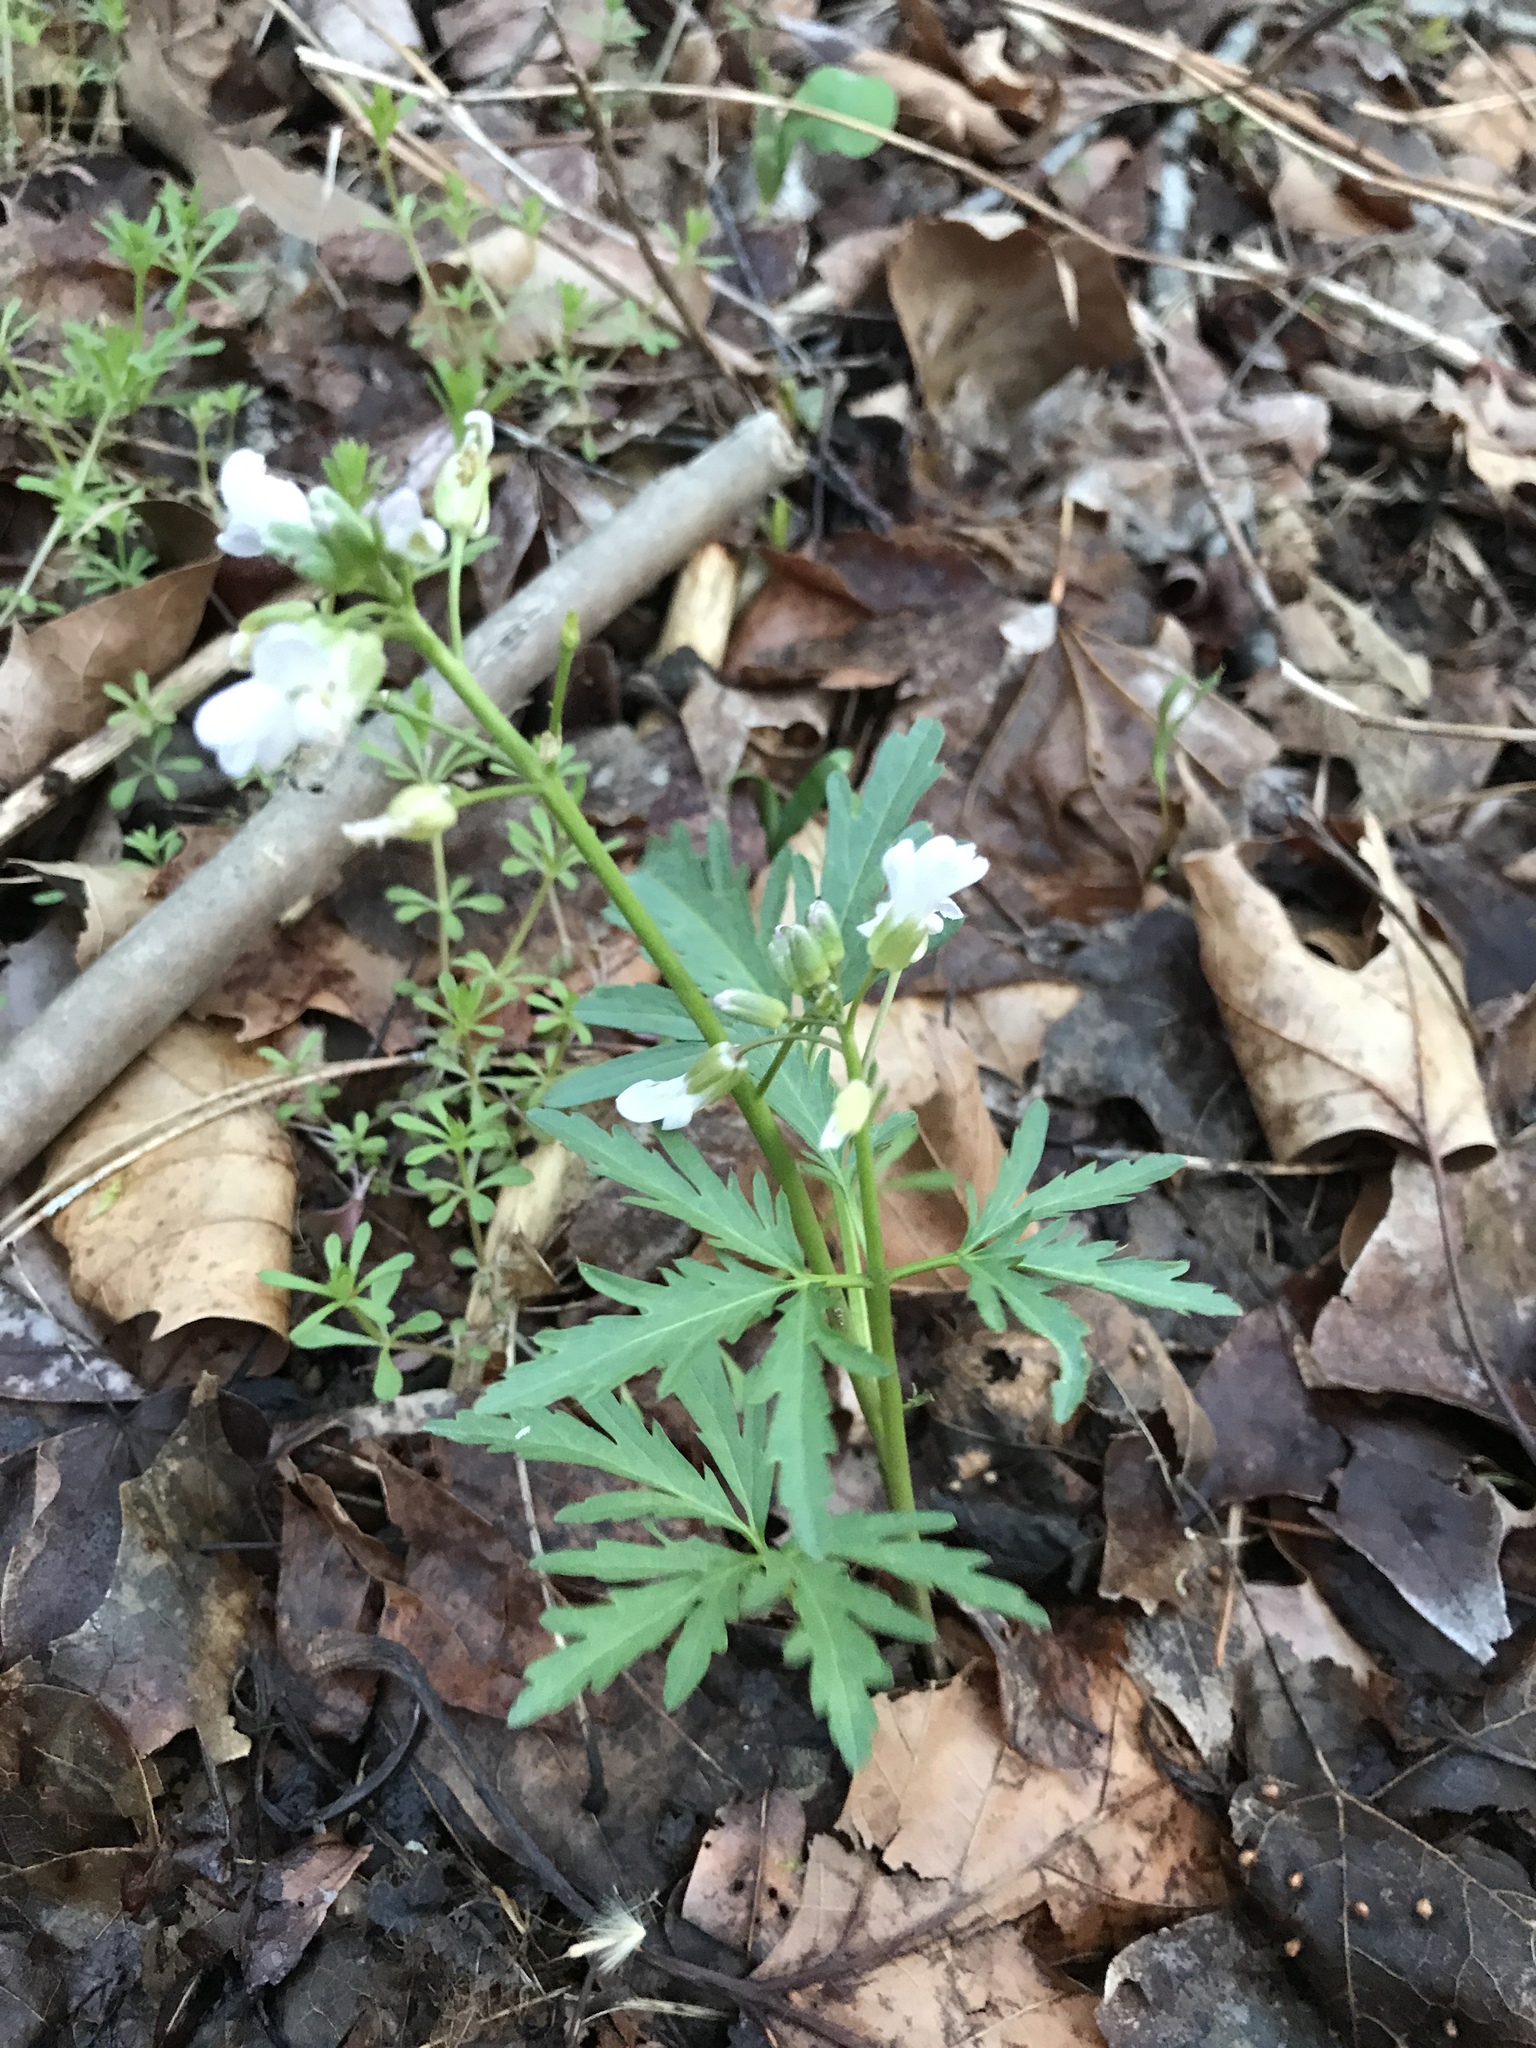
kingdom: Plantae
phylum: Tracheophyta
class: Magnoliopsida
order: Brassicales
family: Brassicaceae
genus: Cardamine
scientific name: Cardamine concatenata
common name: Cut-leaf toothcup
